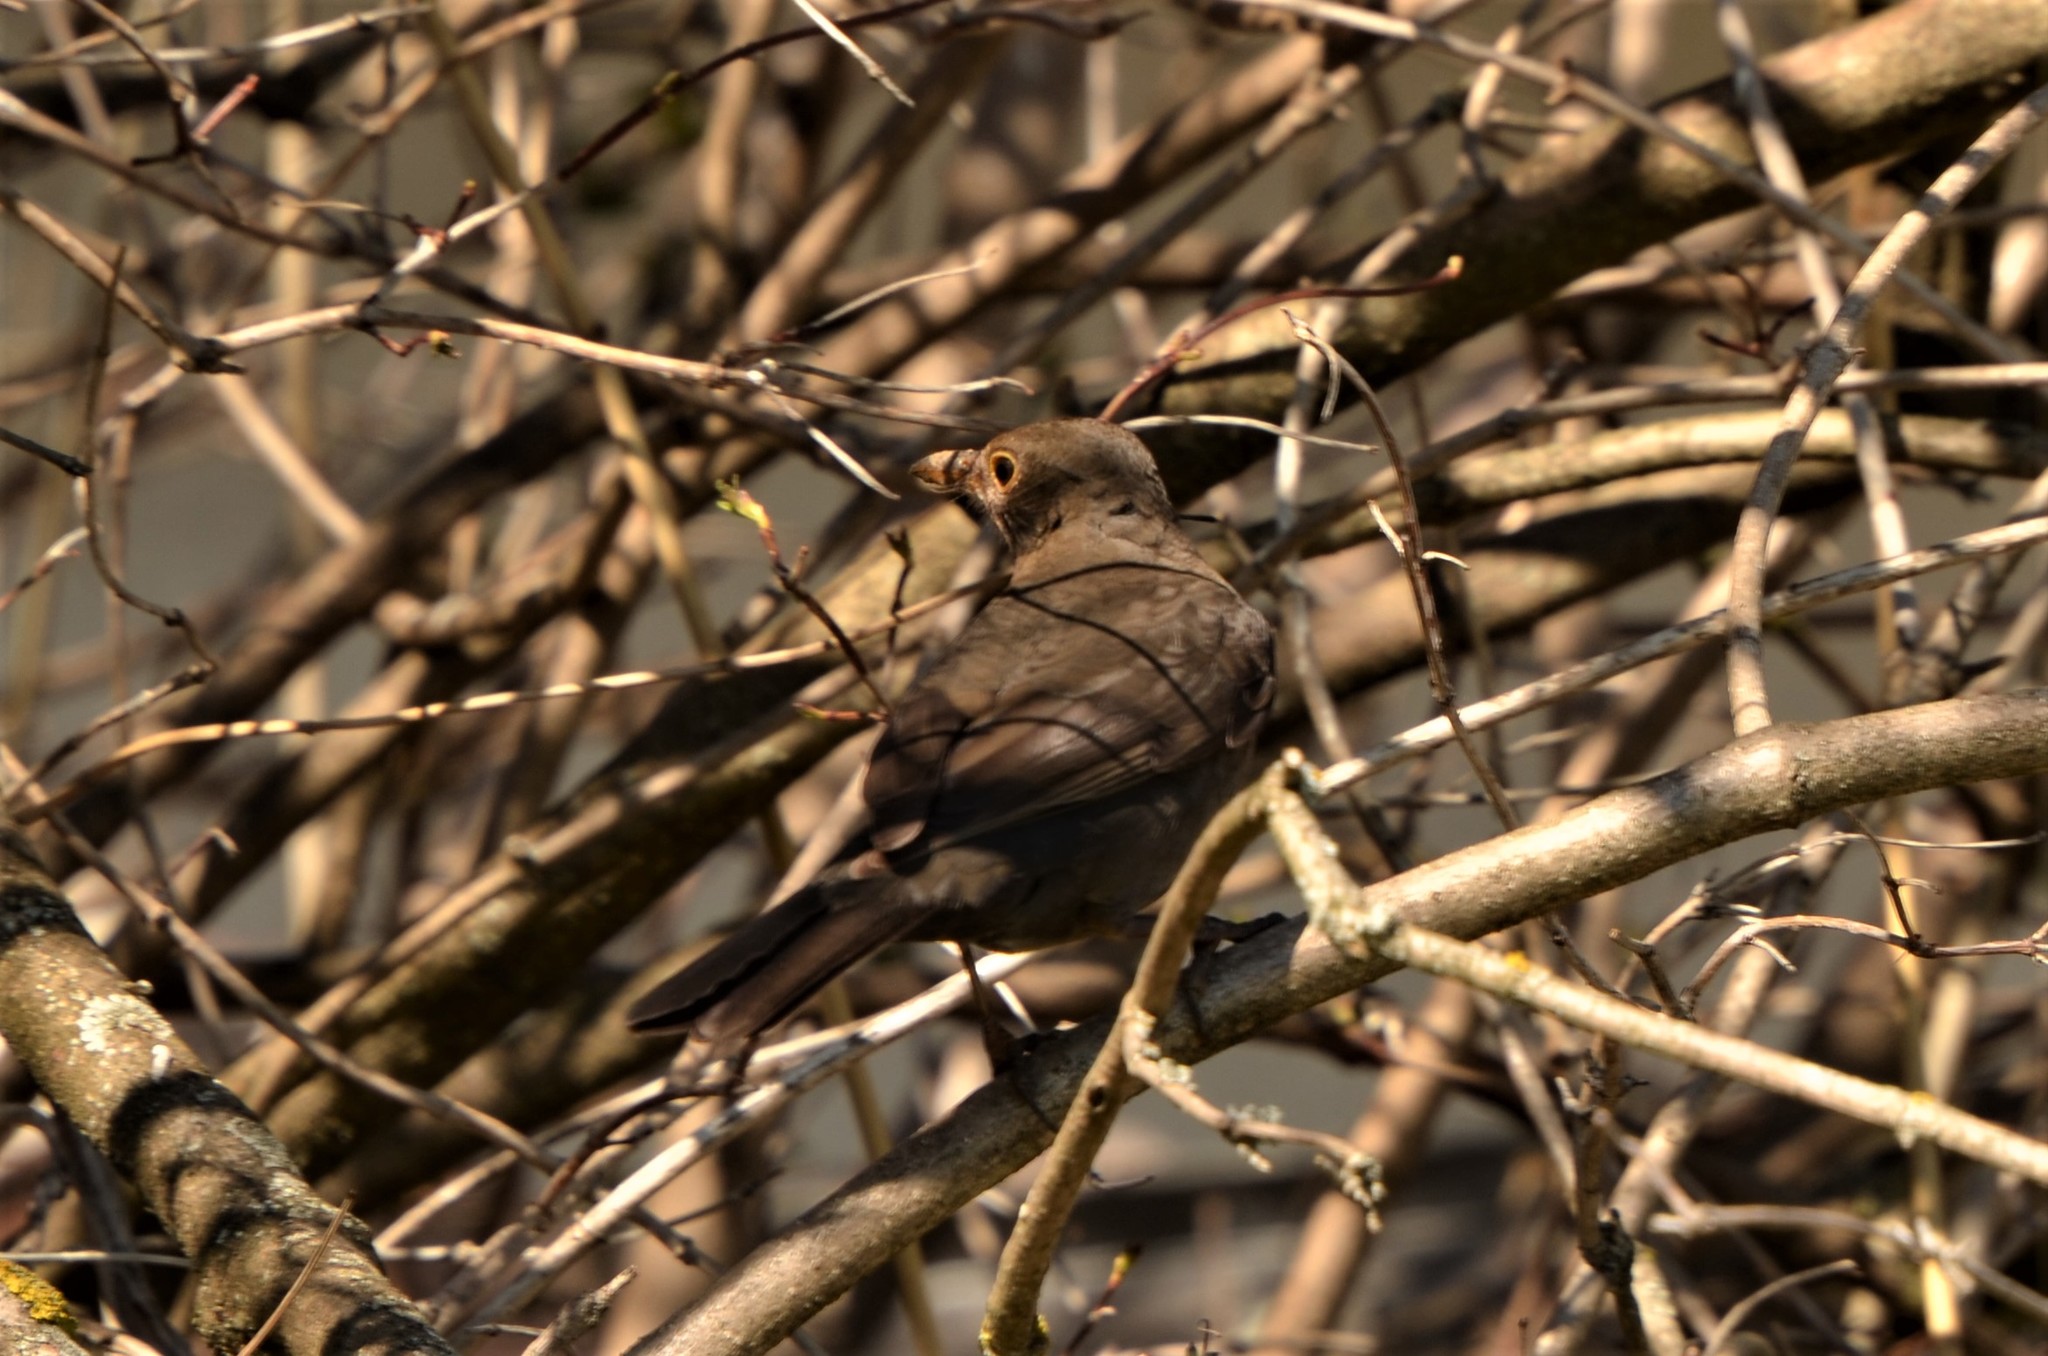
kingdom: Animalia
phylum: Chordata
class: Aves
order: Passeriformes
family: Turdidae
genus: Turdus
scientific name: Turdus merula
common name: Common blackbird
